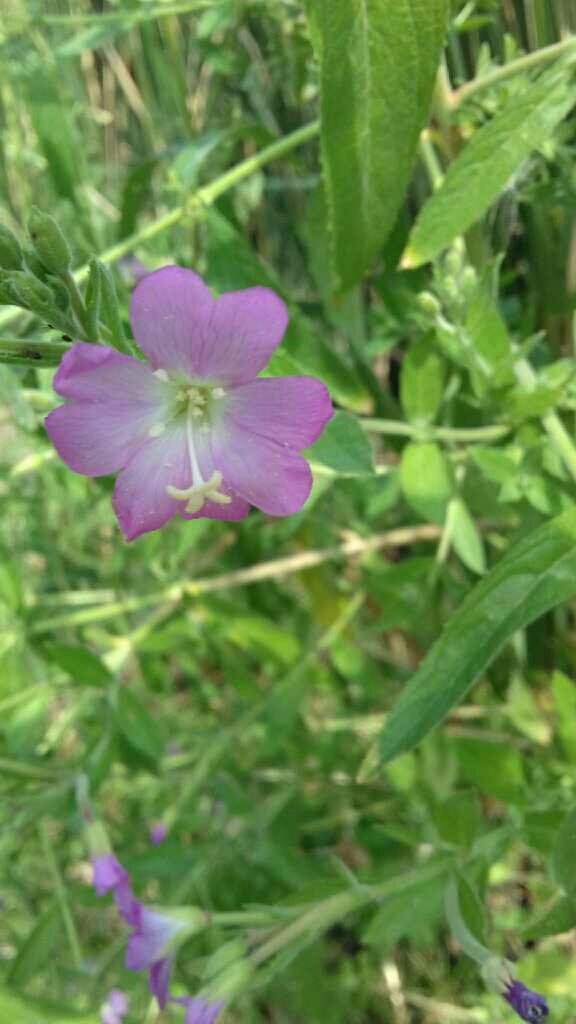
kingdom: Plantae
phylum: Tracheophyta
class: Magnoliopsida
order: Myrtales
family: Onagraceae
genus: Epilobium
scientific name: Epilobium hirsutum
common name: Great willowherb
